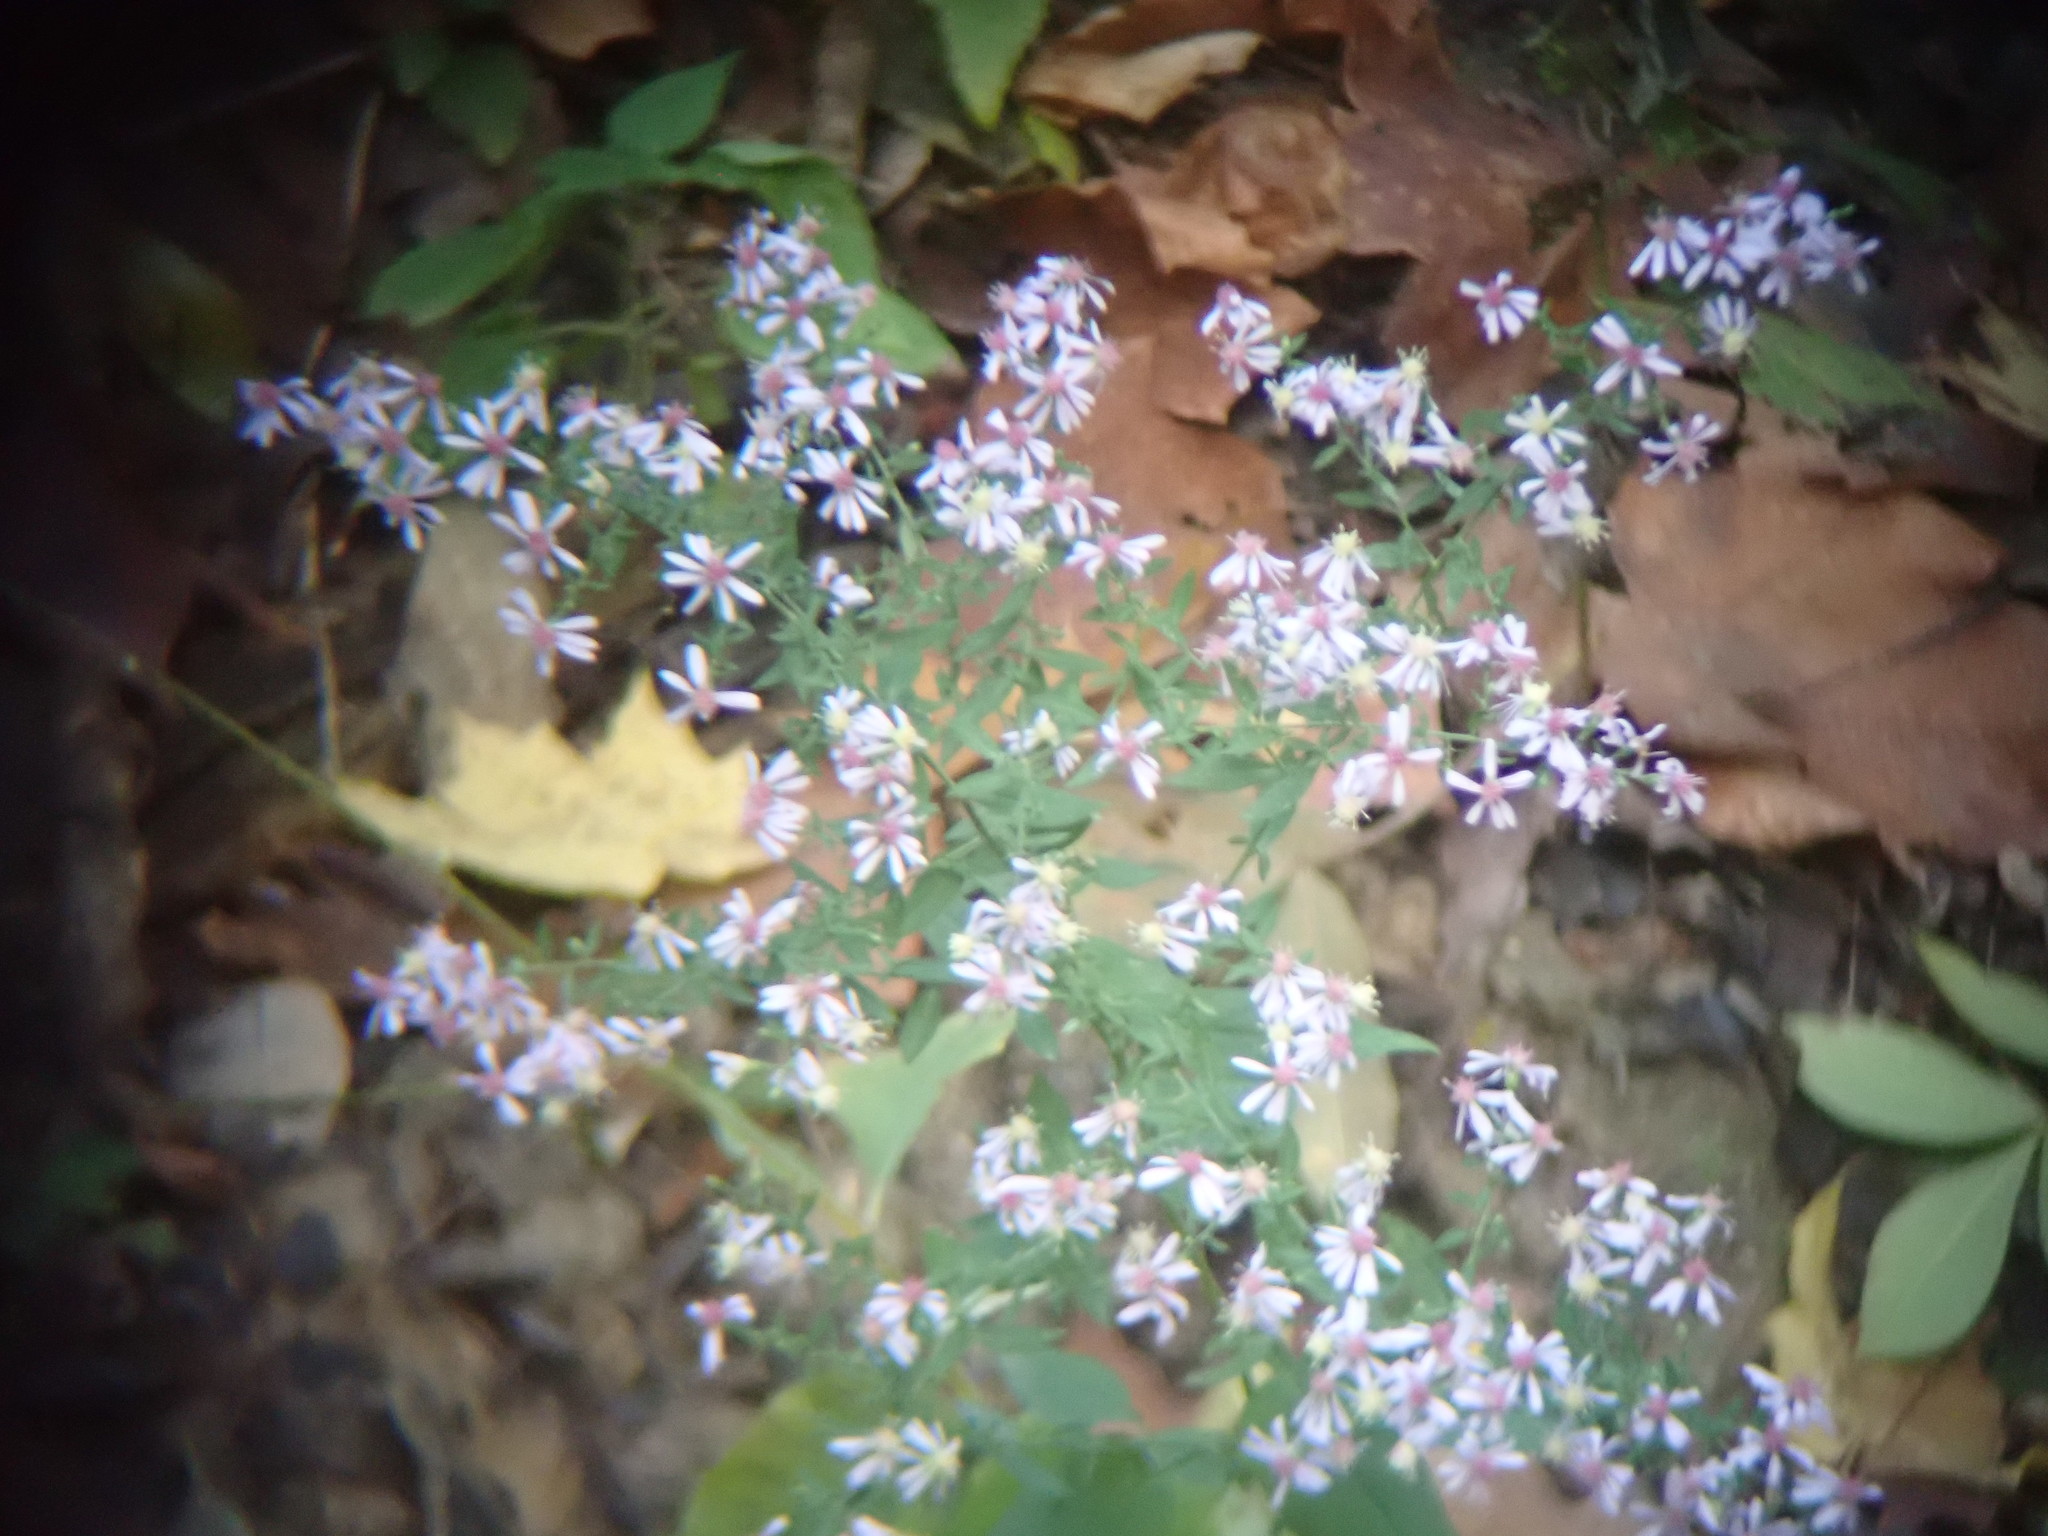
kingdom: Plantae
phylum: Tracheophyta
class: Magnoliopsida
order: Asterales
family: Asteraceae
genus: Symphyotrichum
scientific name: Symphyotrichum cordifolium
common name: Beeweed
